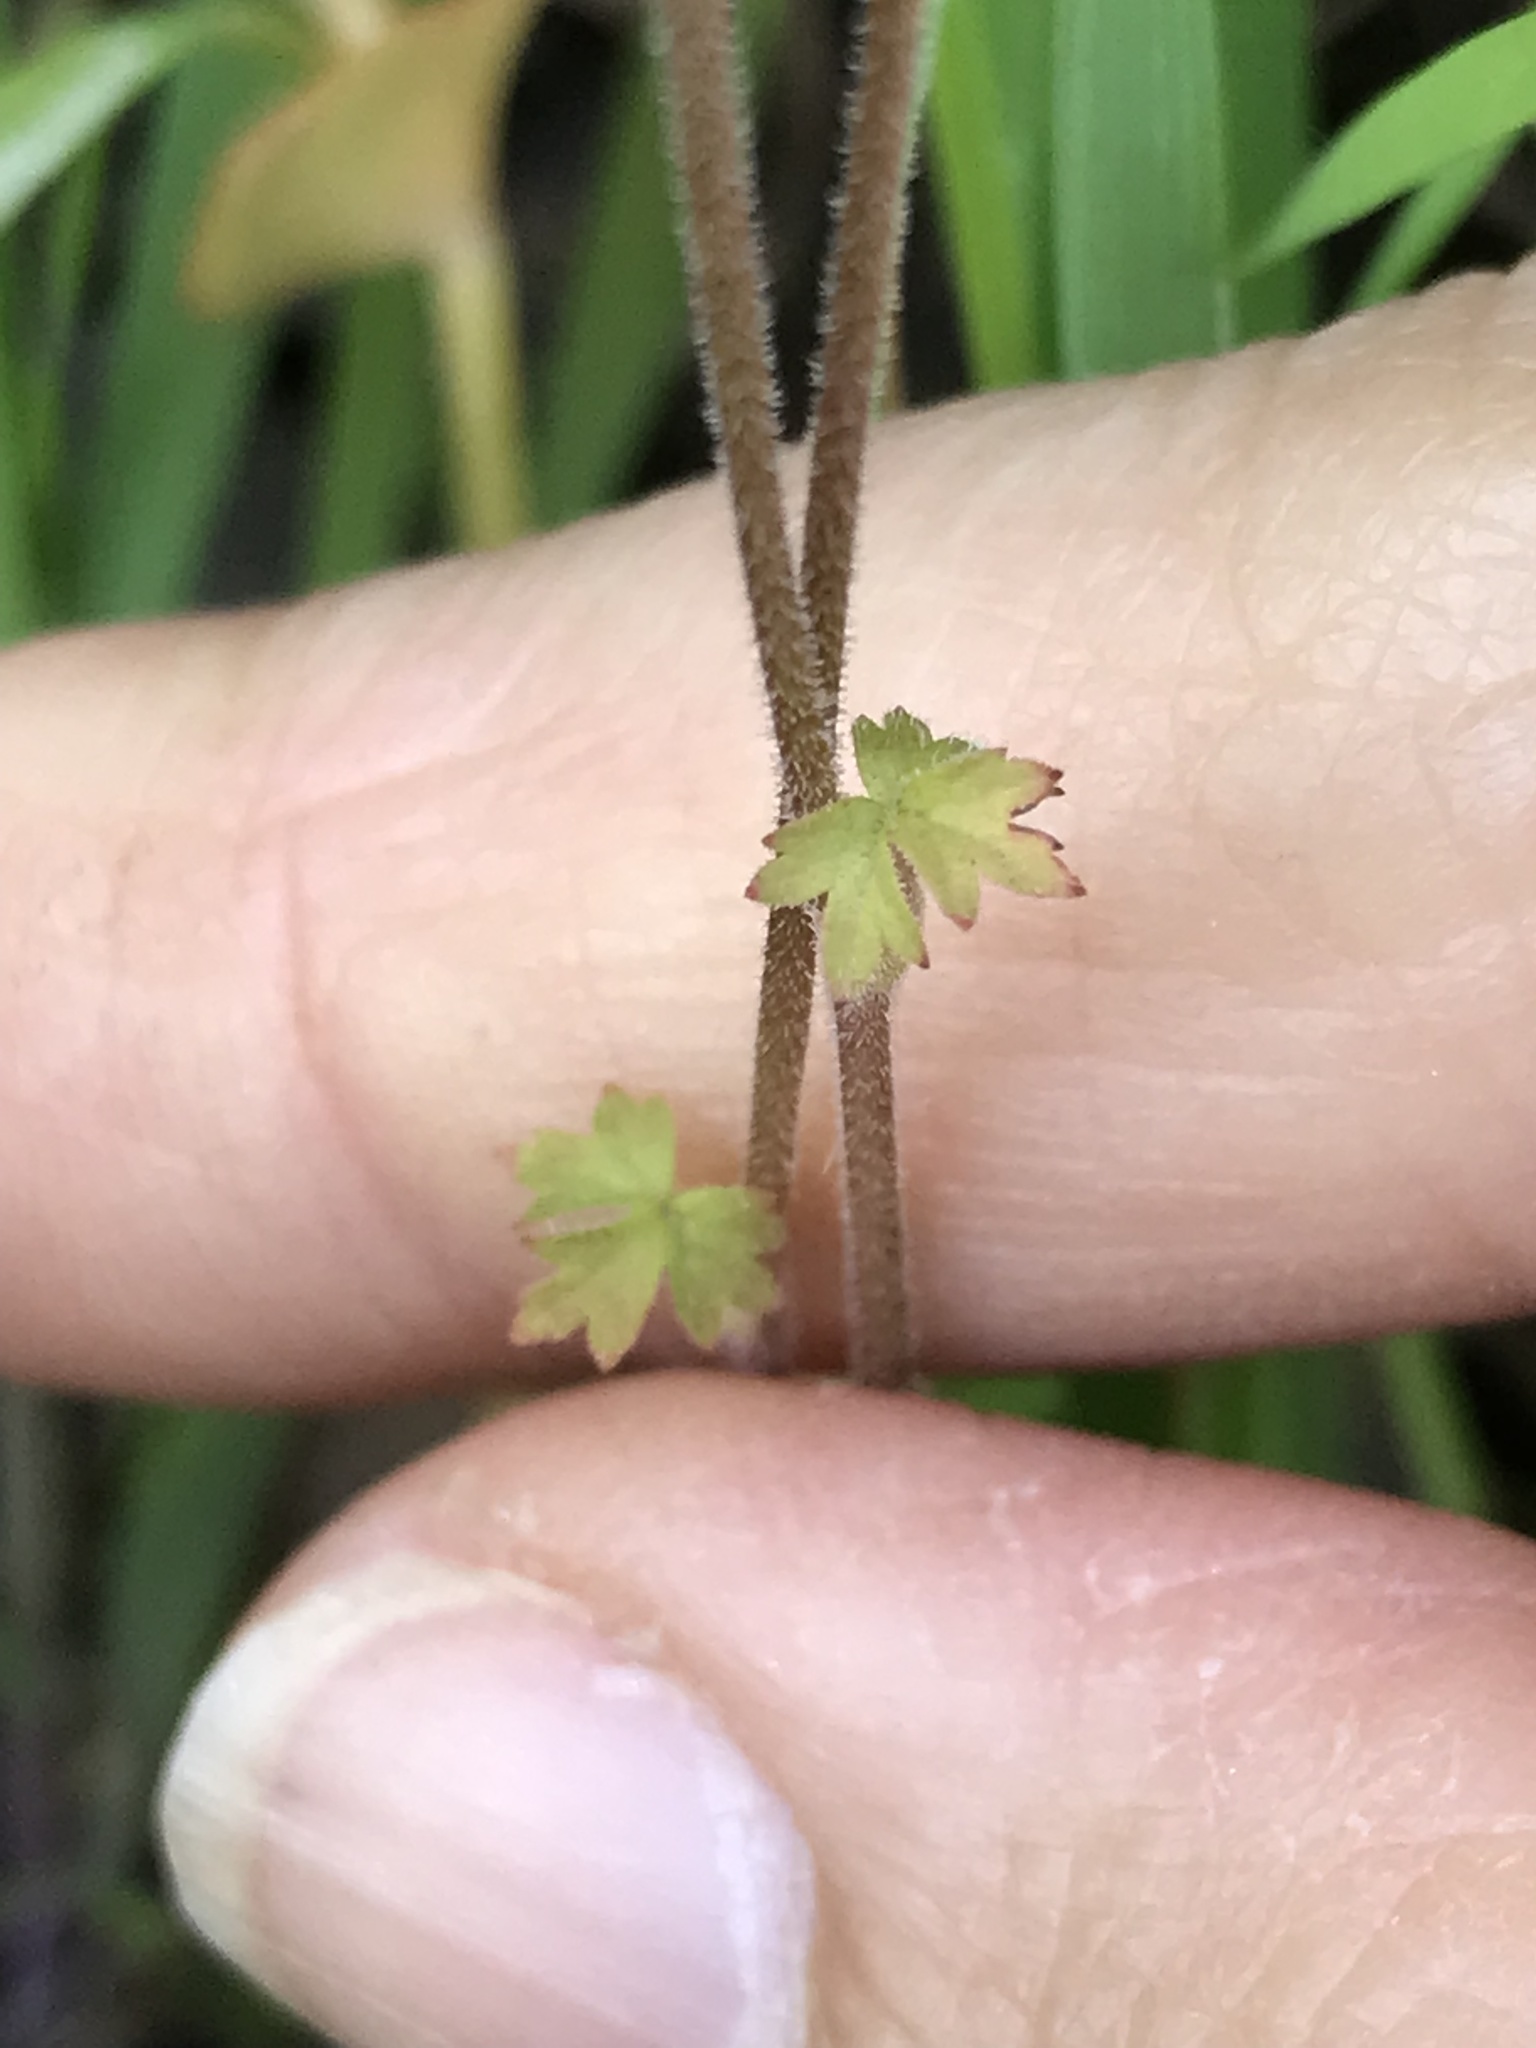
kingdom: Plantae
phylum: Tracheophyta
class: Magnoliopsida
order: Saxifragales
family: Saxifragaceae
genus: Lithophragma
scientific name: Lithophragma affine
